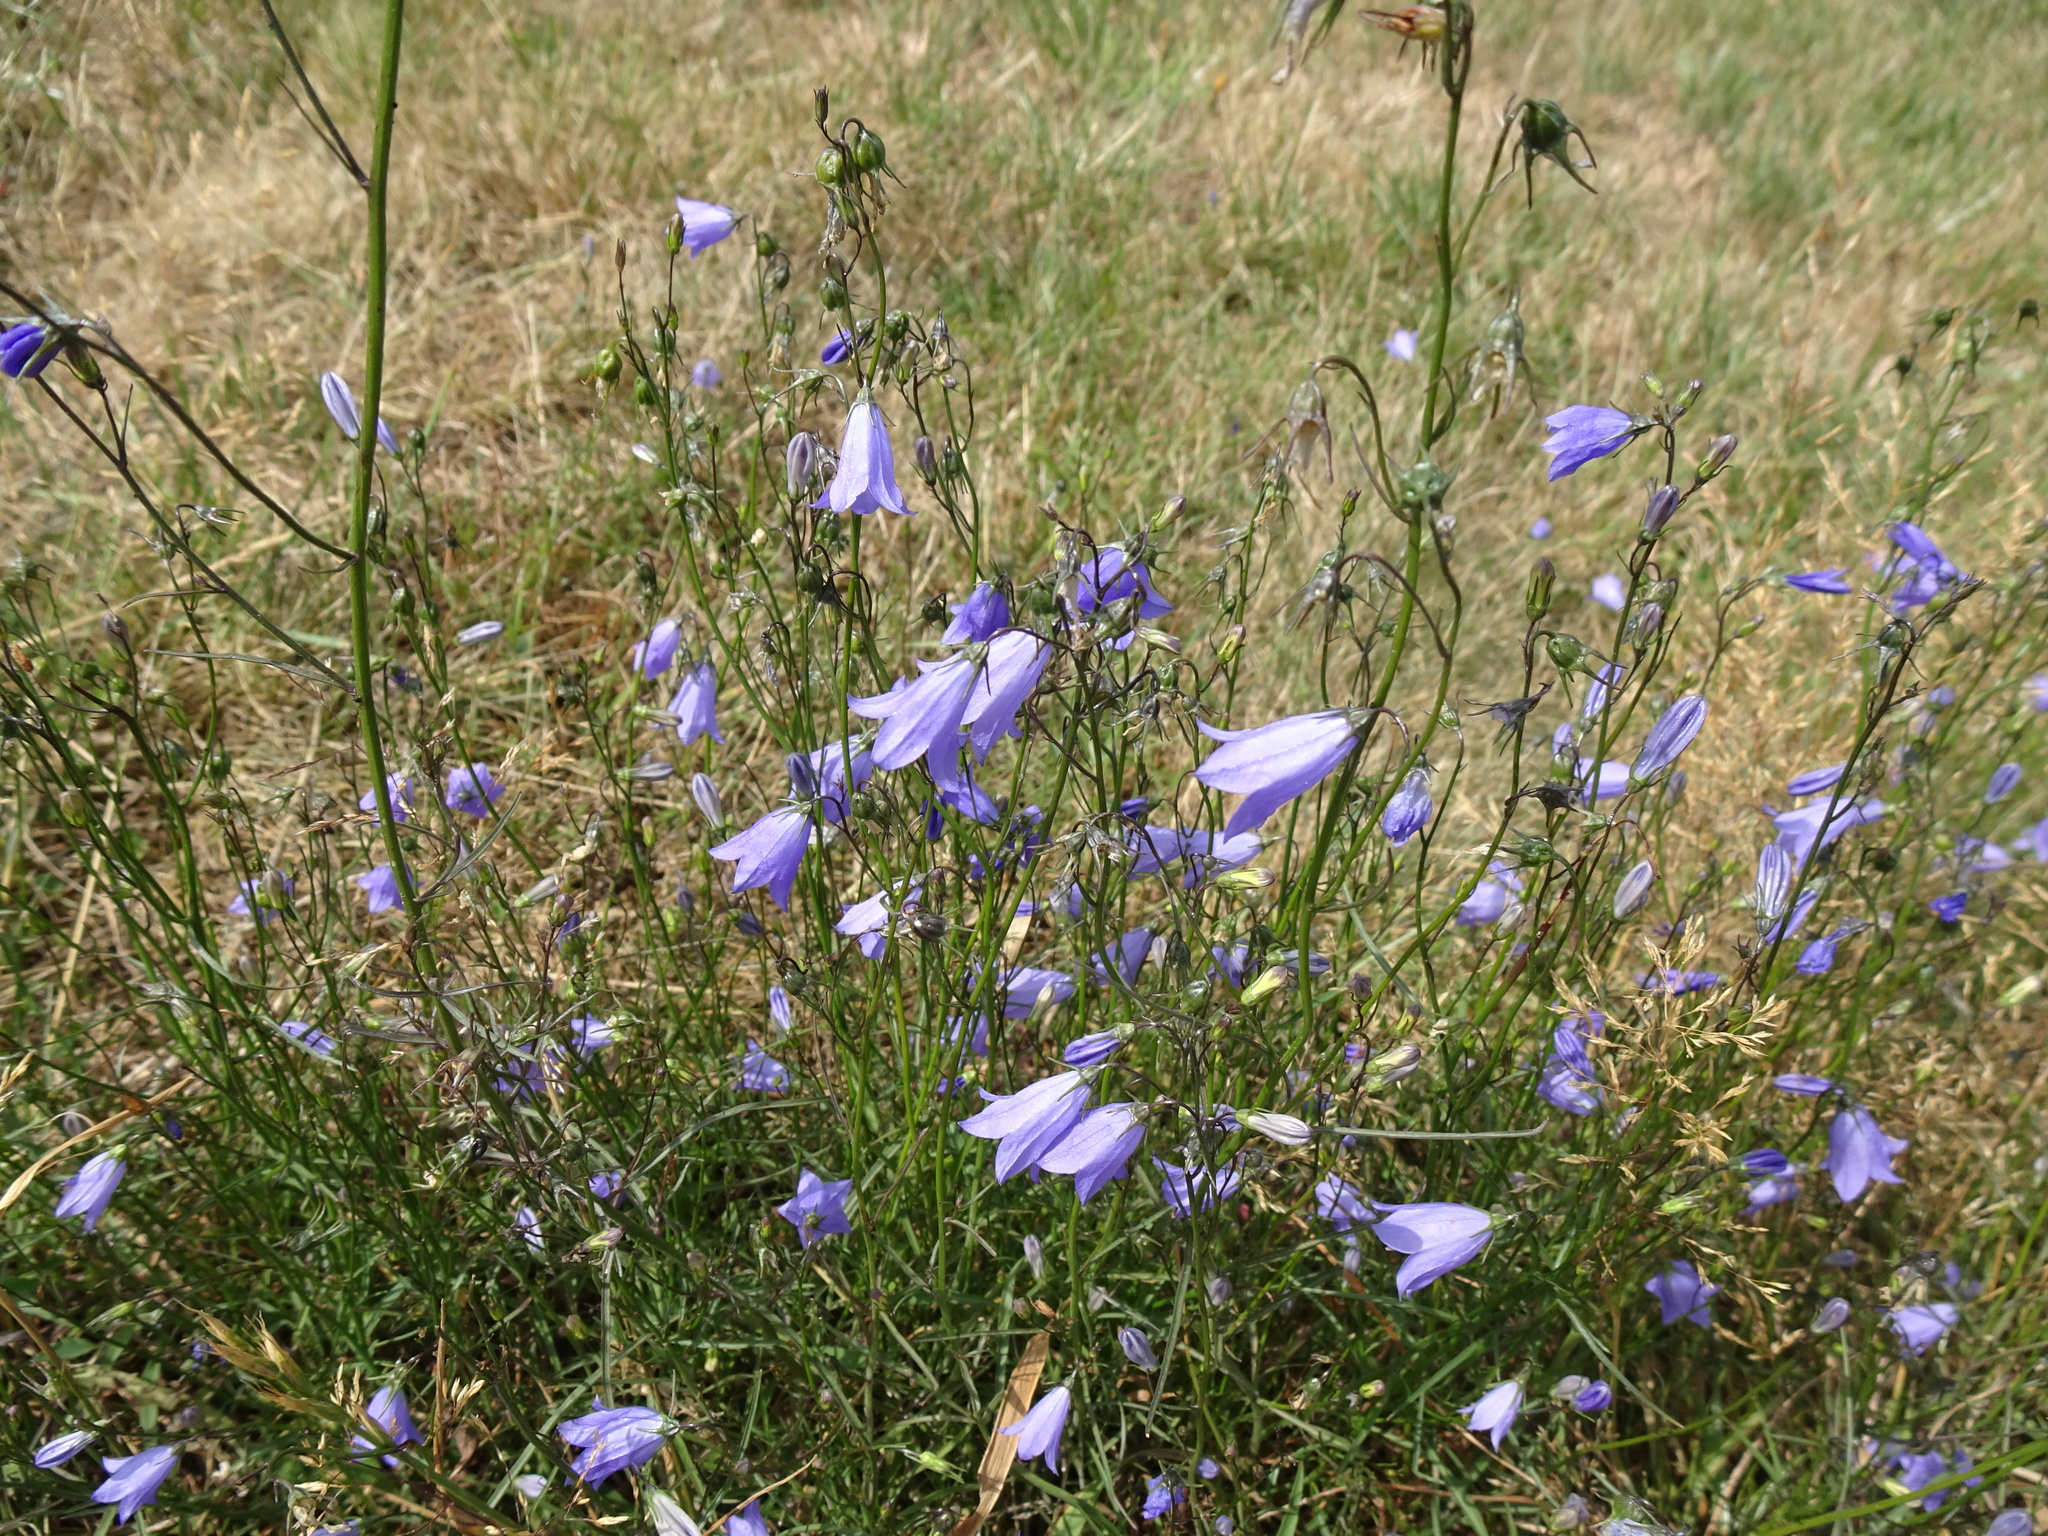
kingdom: Plantae
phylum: Tracheophyta
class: Magnoliopsida
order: Asterales
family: Campanulaceae
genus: Campanula
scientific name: Campanula rotundifolia
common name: Harebell
